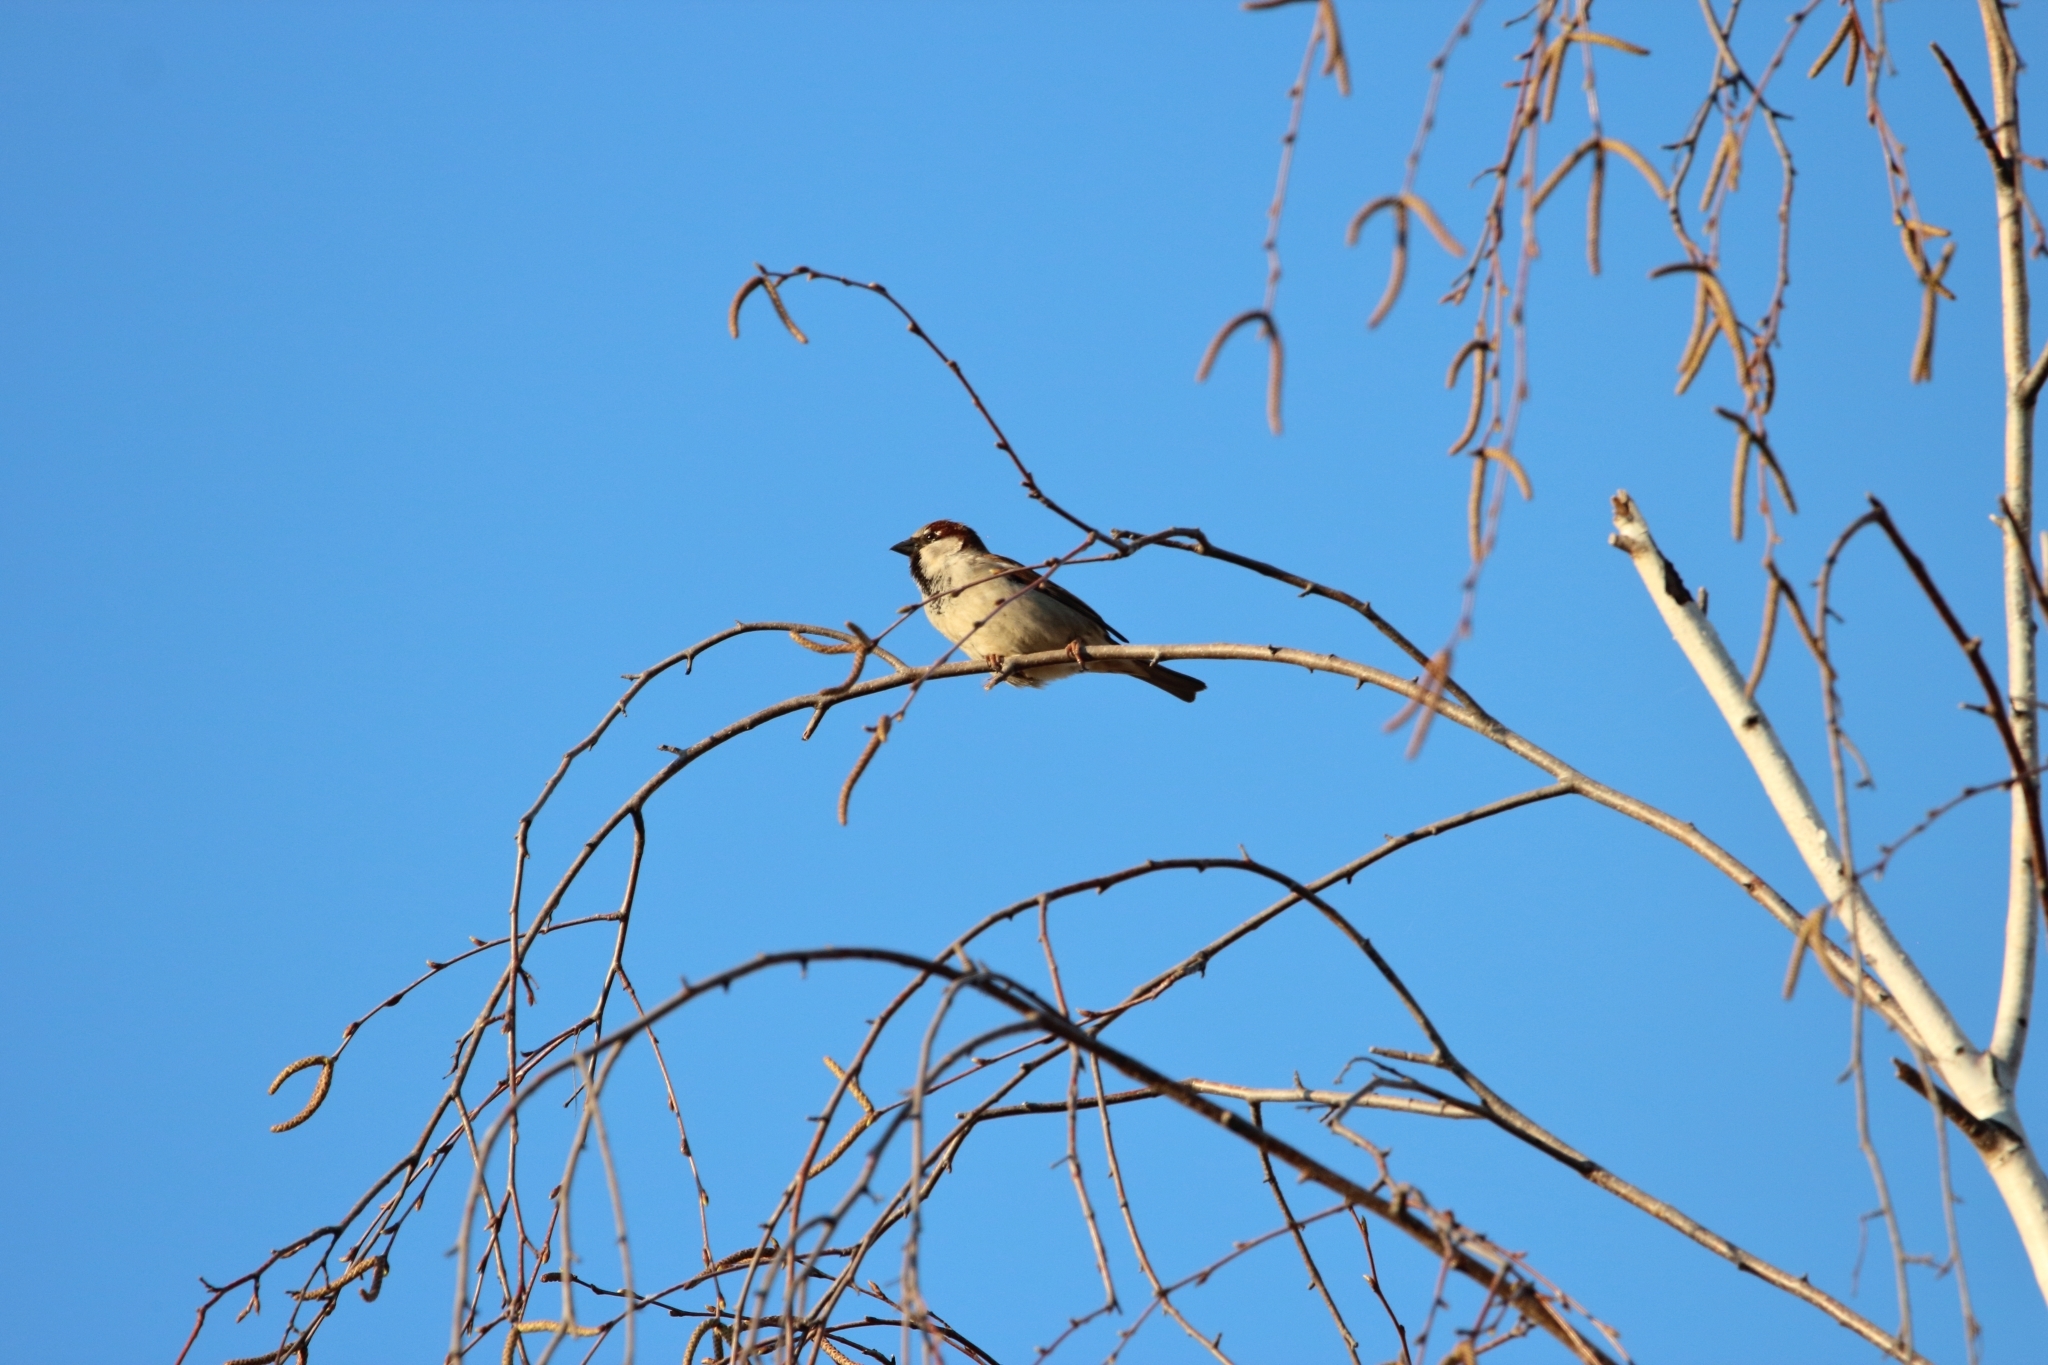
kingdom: Animalia
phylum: Chordata
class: Aves
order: Passeriformes
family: Passeridae
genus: Passer
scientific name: Passer domesticus
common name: House sparrow
